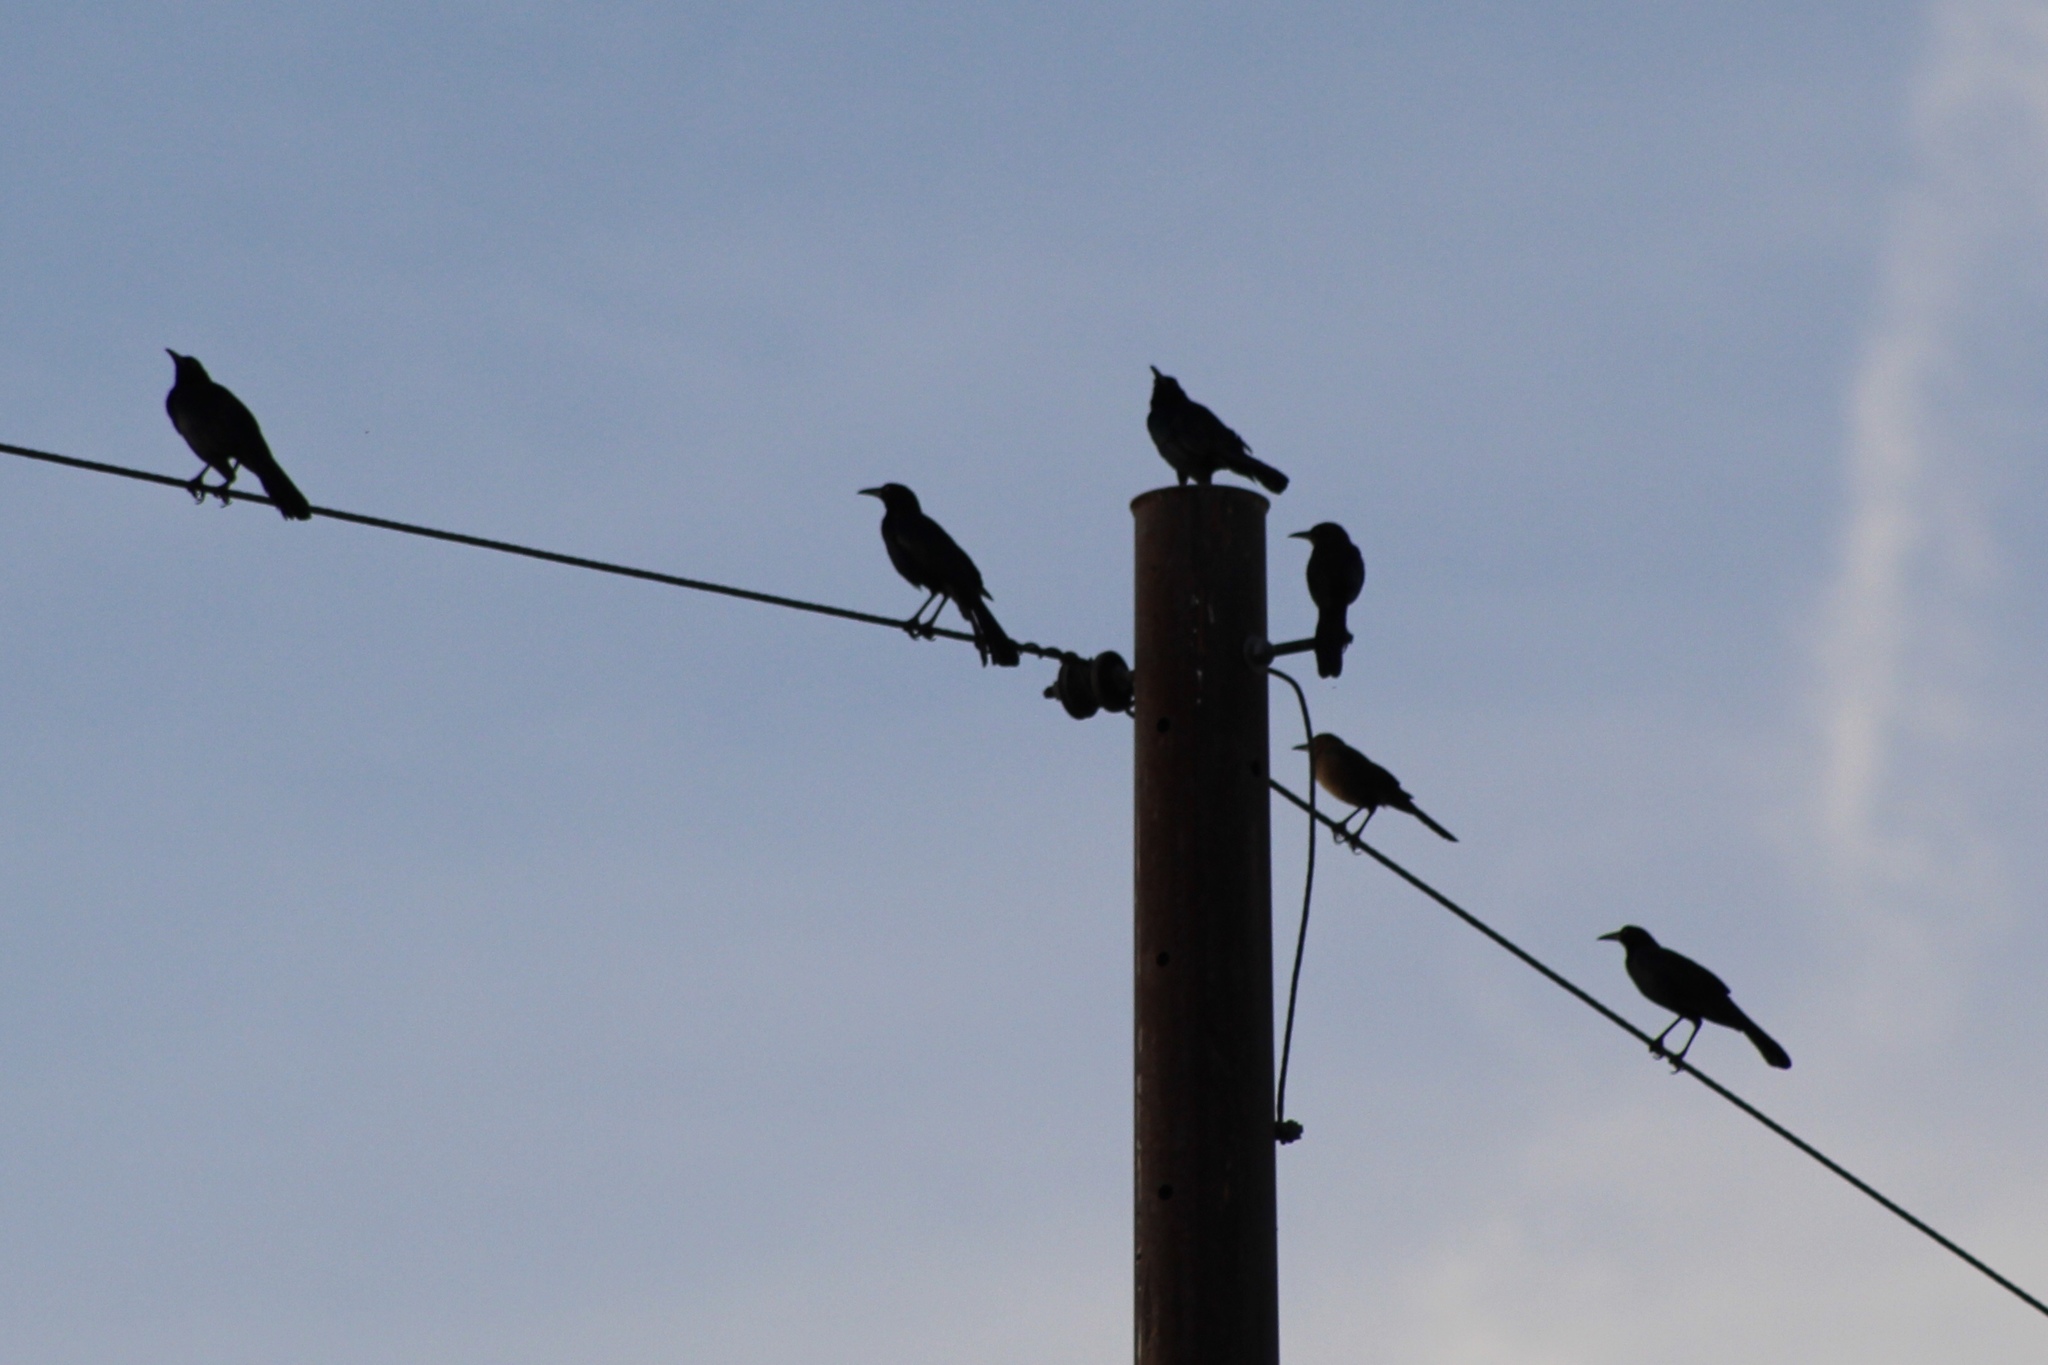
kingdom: Animalia
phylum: Chordata
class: Aves
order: Passeriformes
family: Icteridae
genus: Quiscalus
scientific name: Quiscalus mexicanus
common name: Great-tailed grackle
